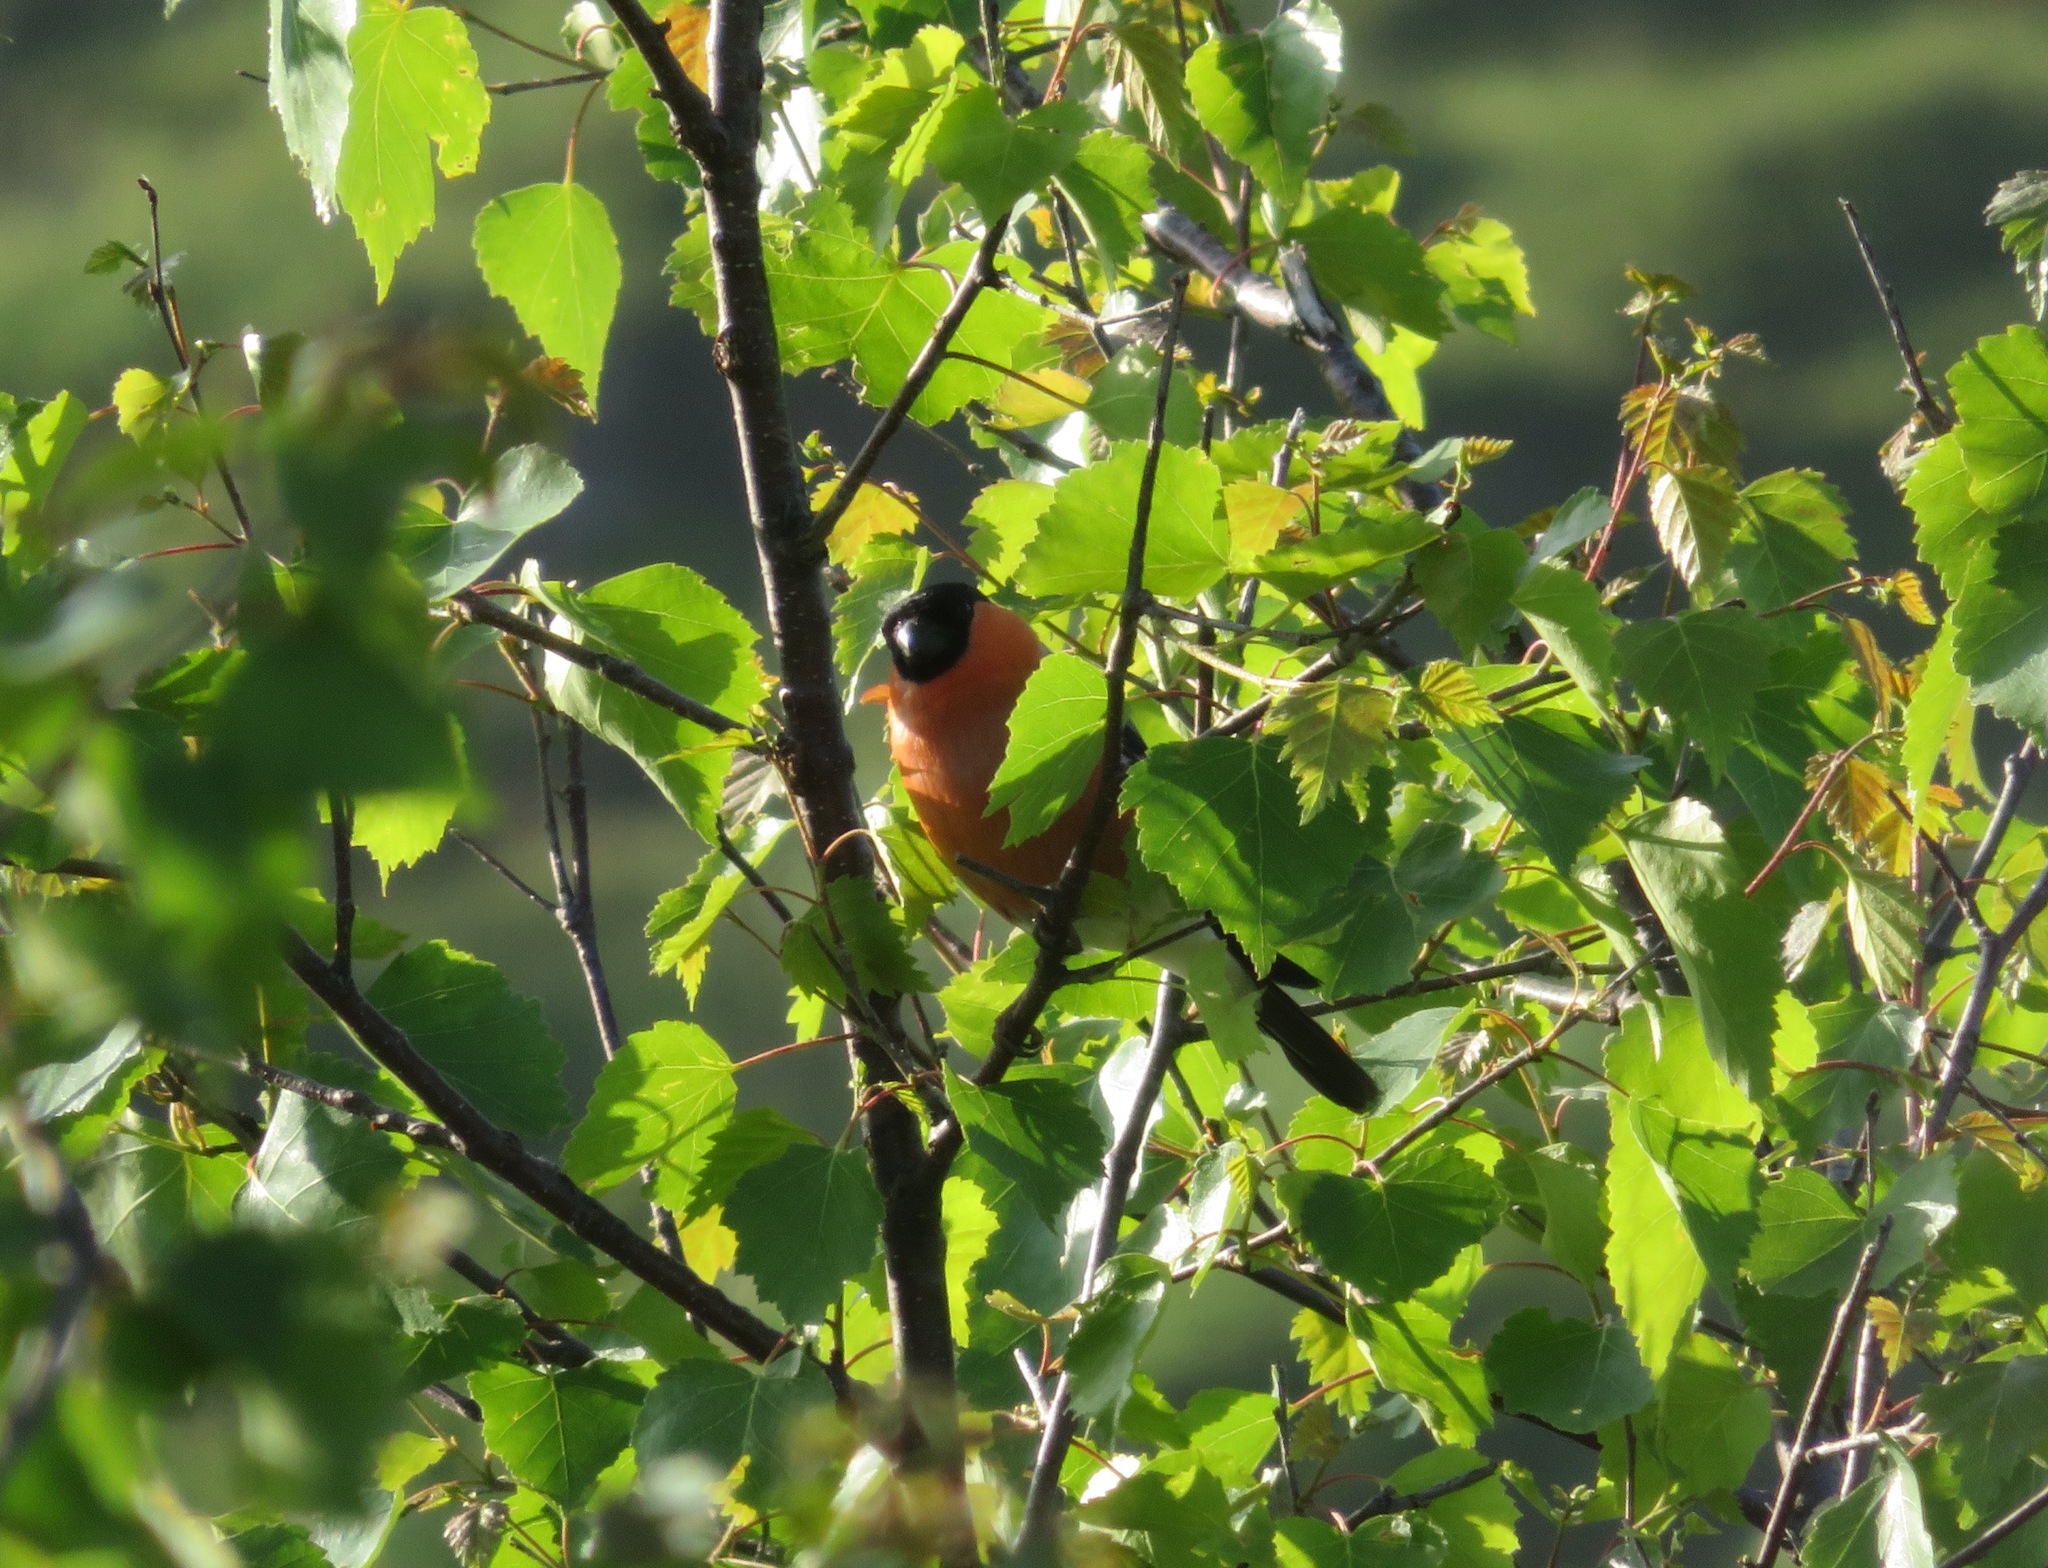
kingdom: Animalia
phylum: Chordata
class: Aves
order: Passeriformes
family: Fringillidae
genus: Pyrrhula
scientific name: Pyrrhula pyrrhula
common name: Eurasian bullfinch
